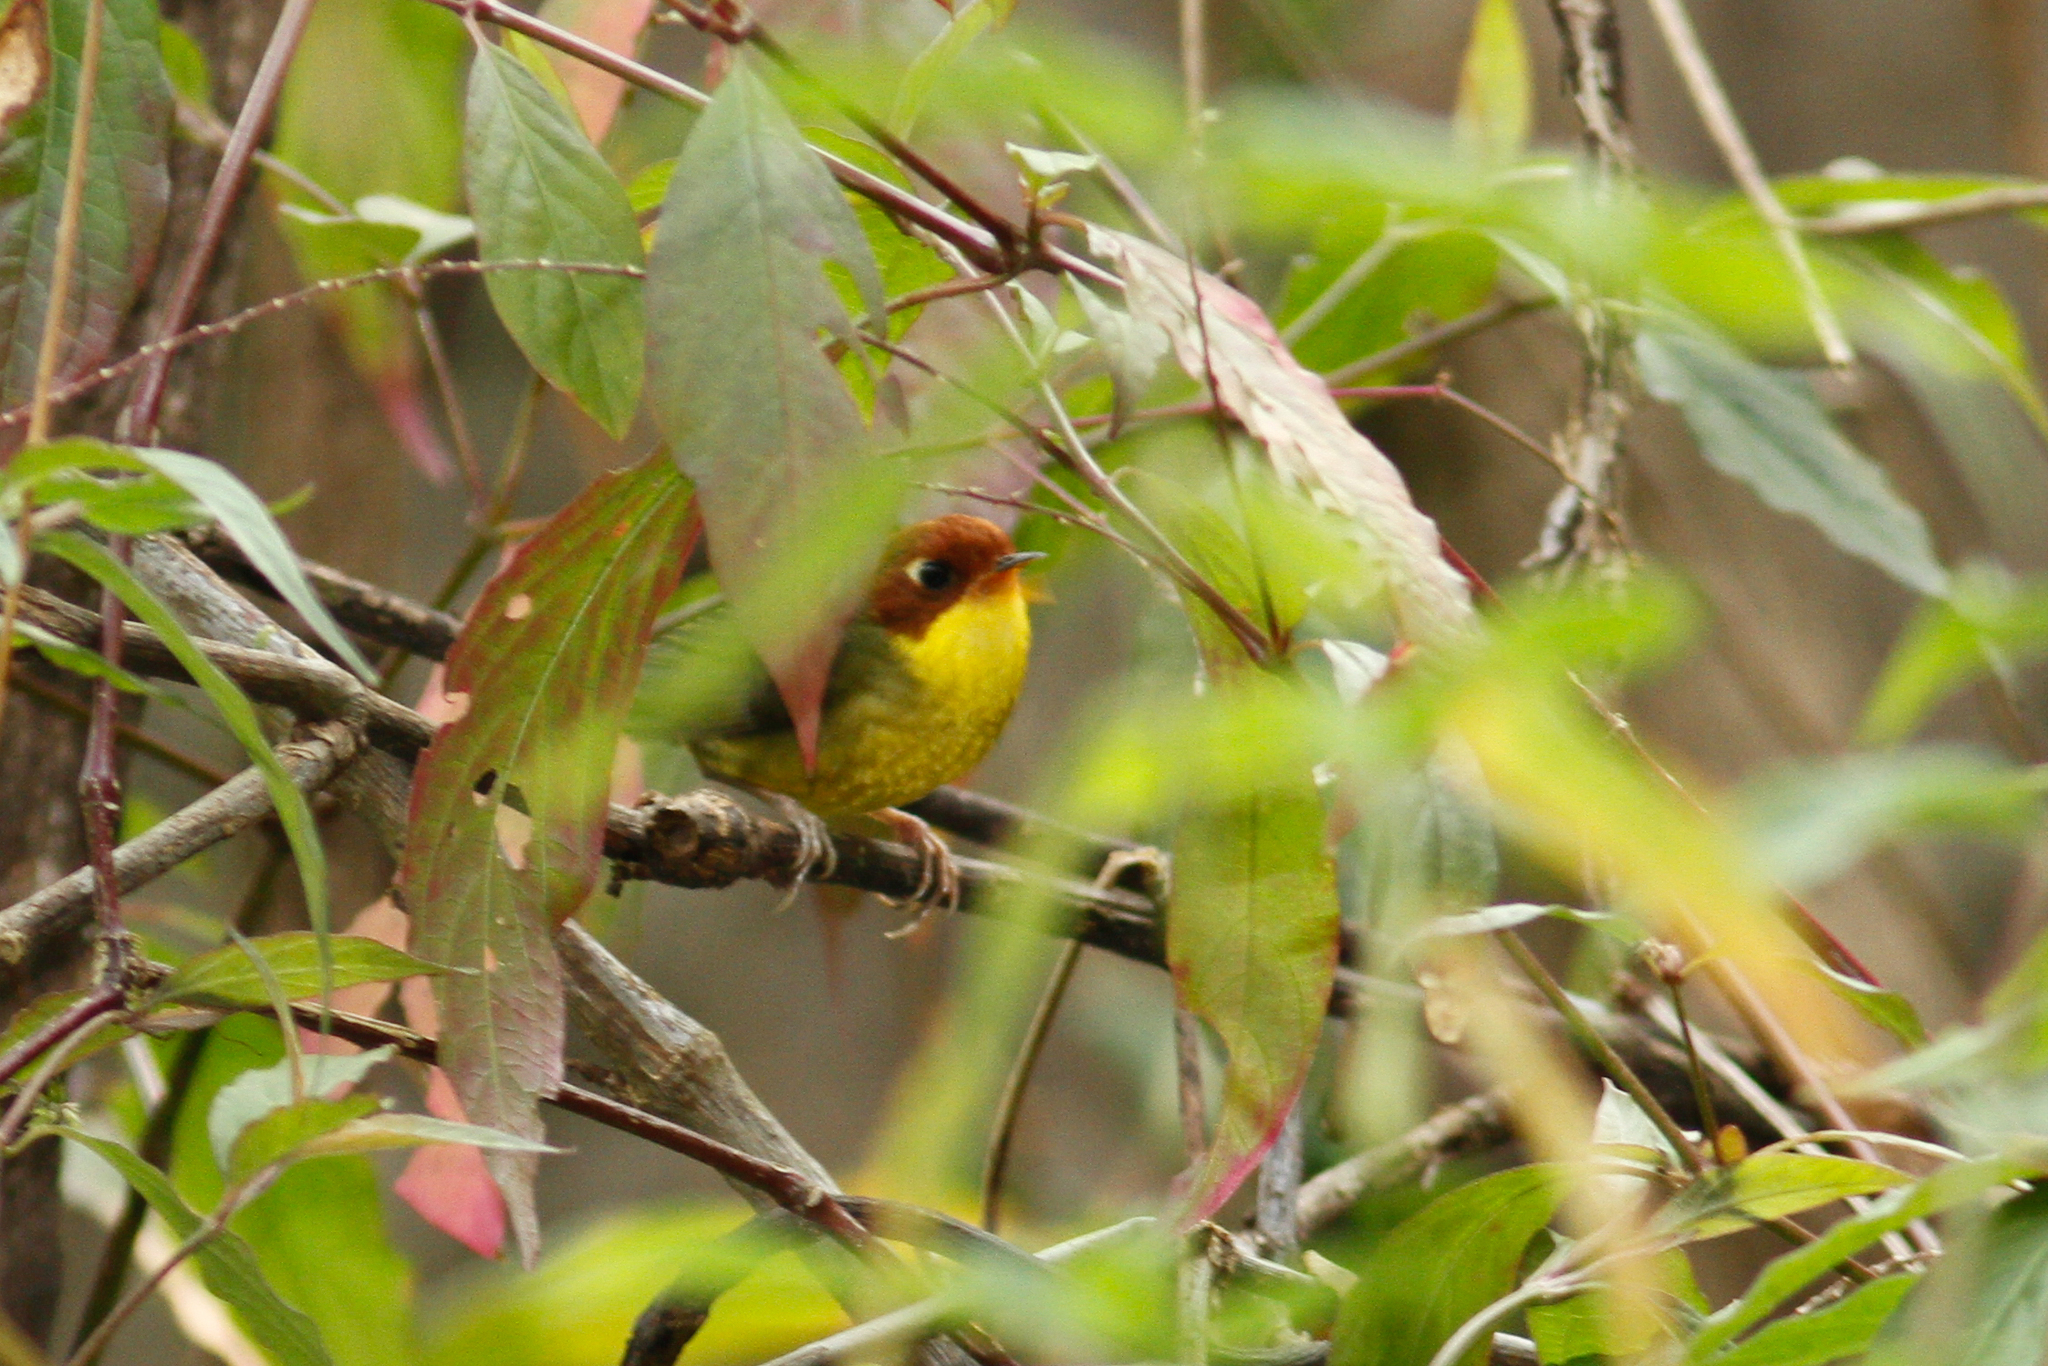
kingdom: Animalia
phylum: Chordata
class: Aves
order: Passeriformes
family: Cettiidae
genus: Cettia
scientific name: Cettia castaneocoronata
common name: Chestnut-headed tesia
